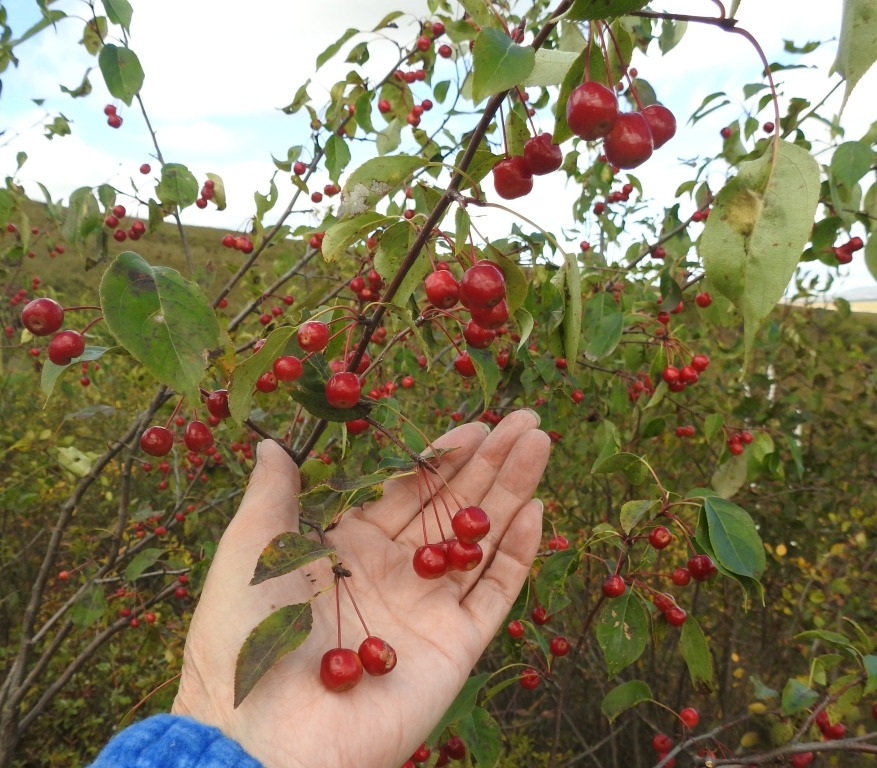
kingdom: Plantae
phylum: Tracheophyta
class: Magnoliopsida
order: Rosales
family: Rosaceae
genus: Malus
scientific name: Malus baccata
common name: Siberian crab
